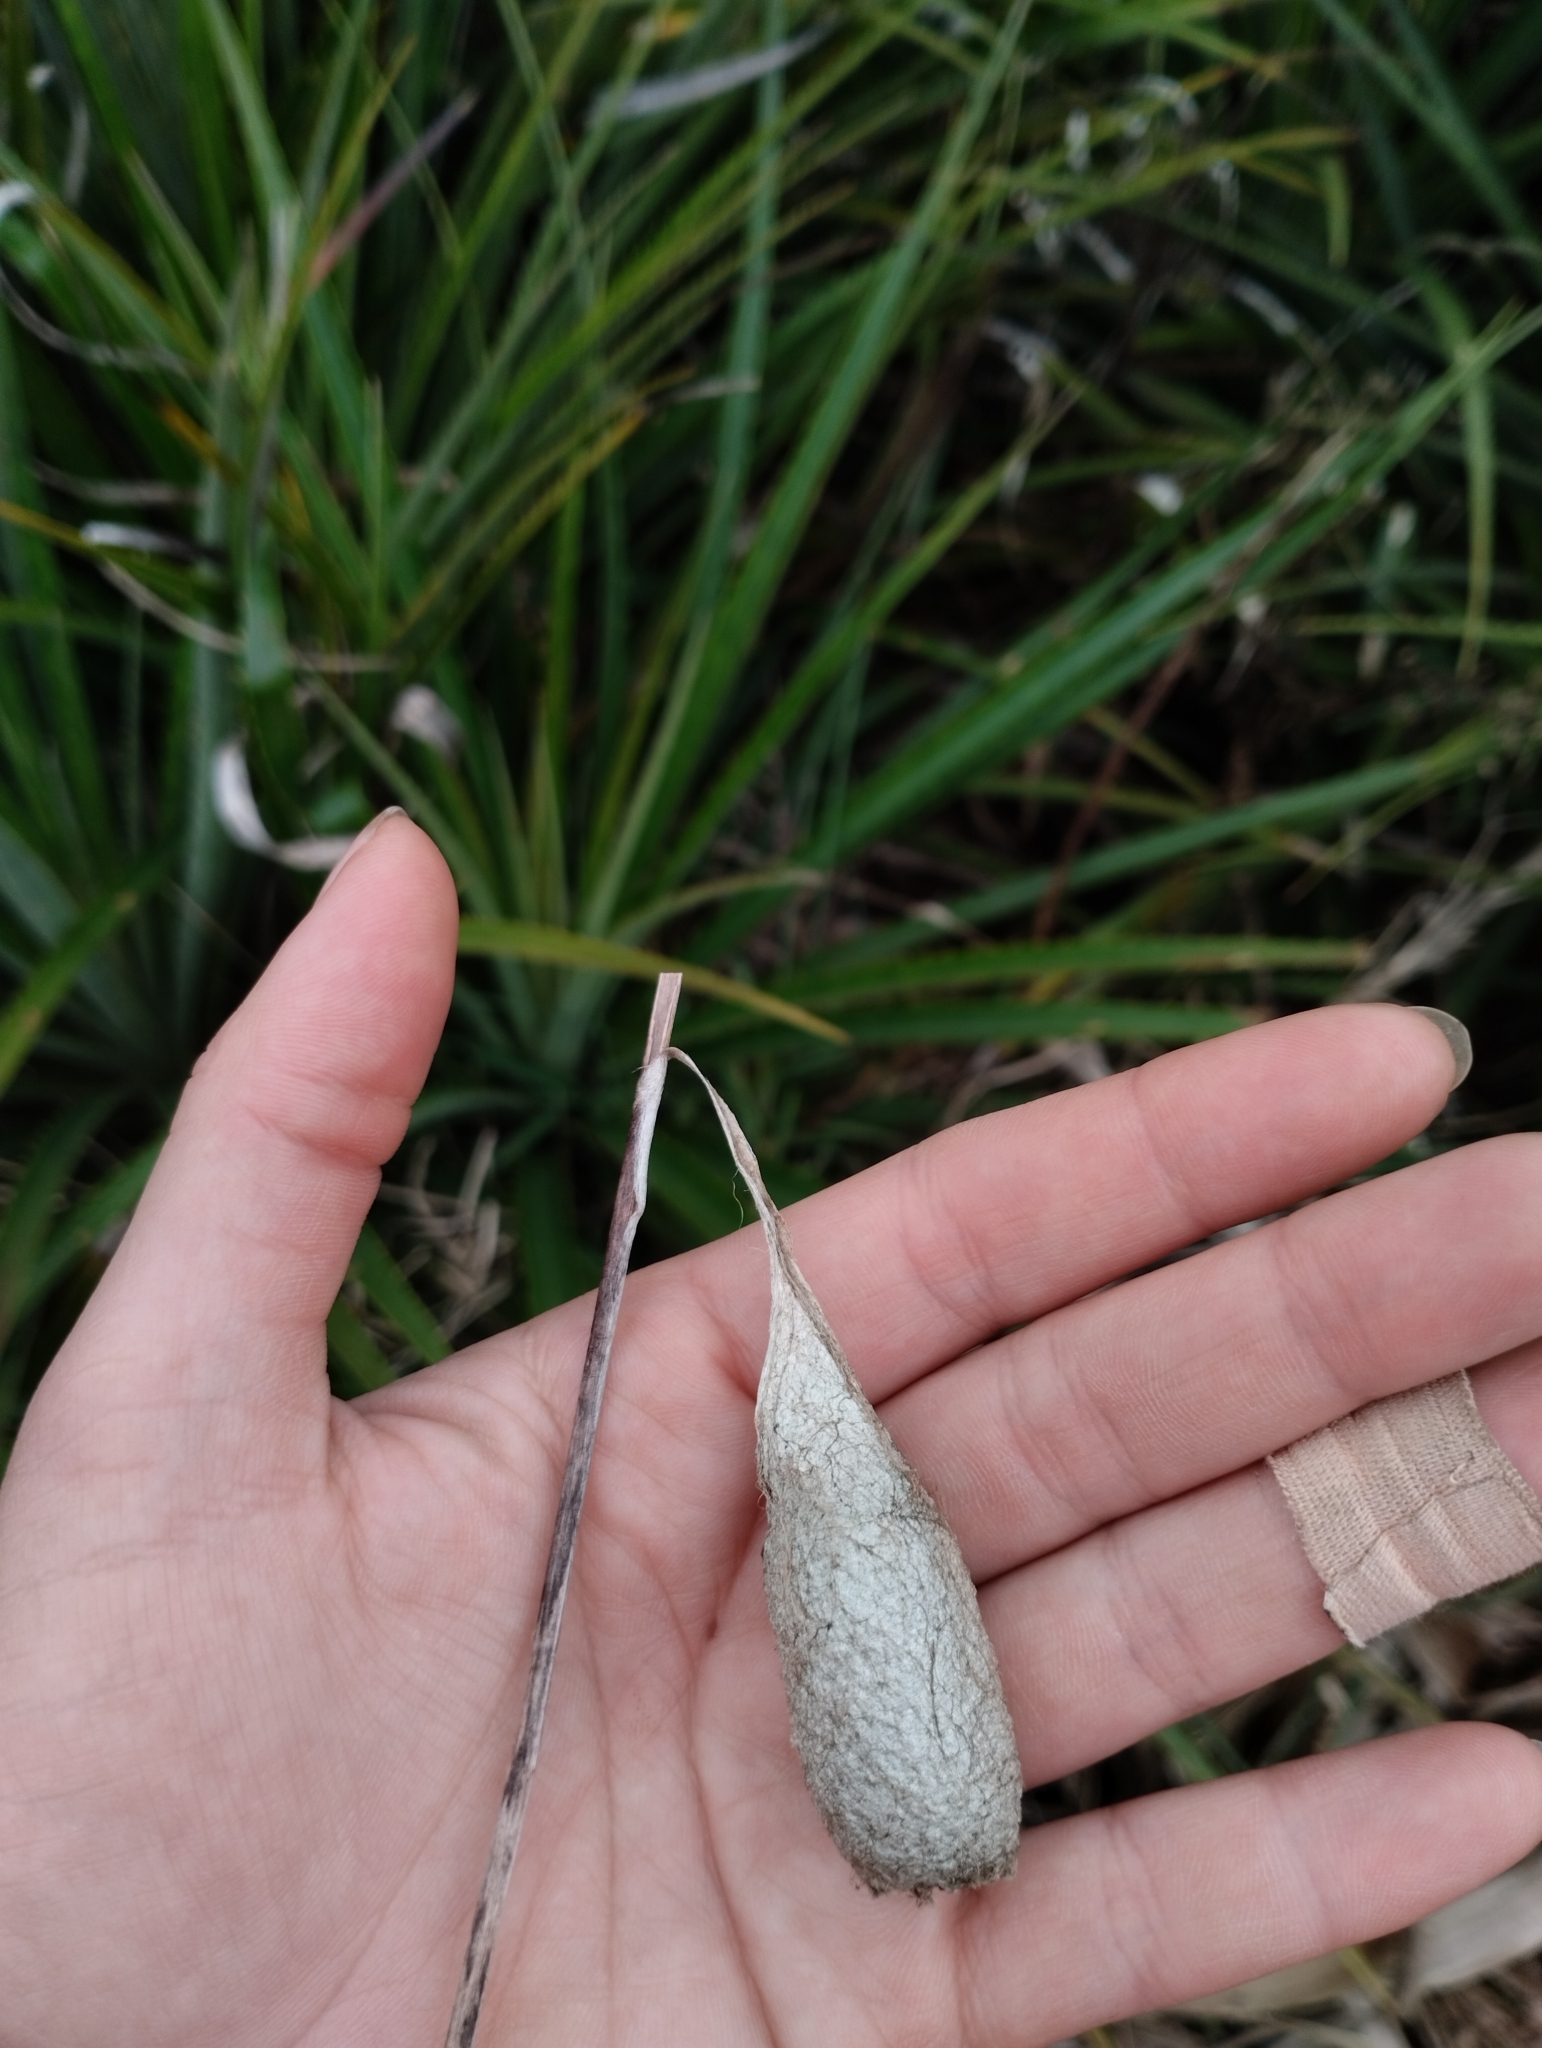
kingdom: Animalia
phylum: Arthropoda
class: Insecta
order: Lepidoptera
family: Saturniidae
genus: Rothschildia
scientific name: Rothschildia jacobaeae
